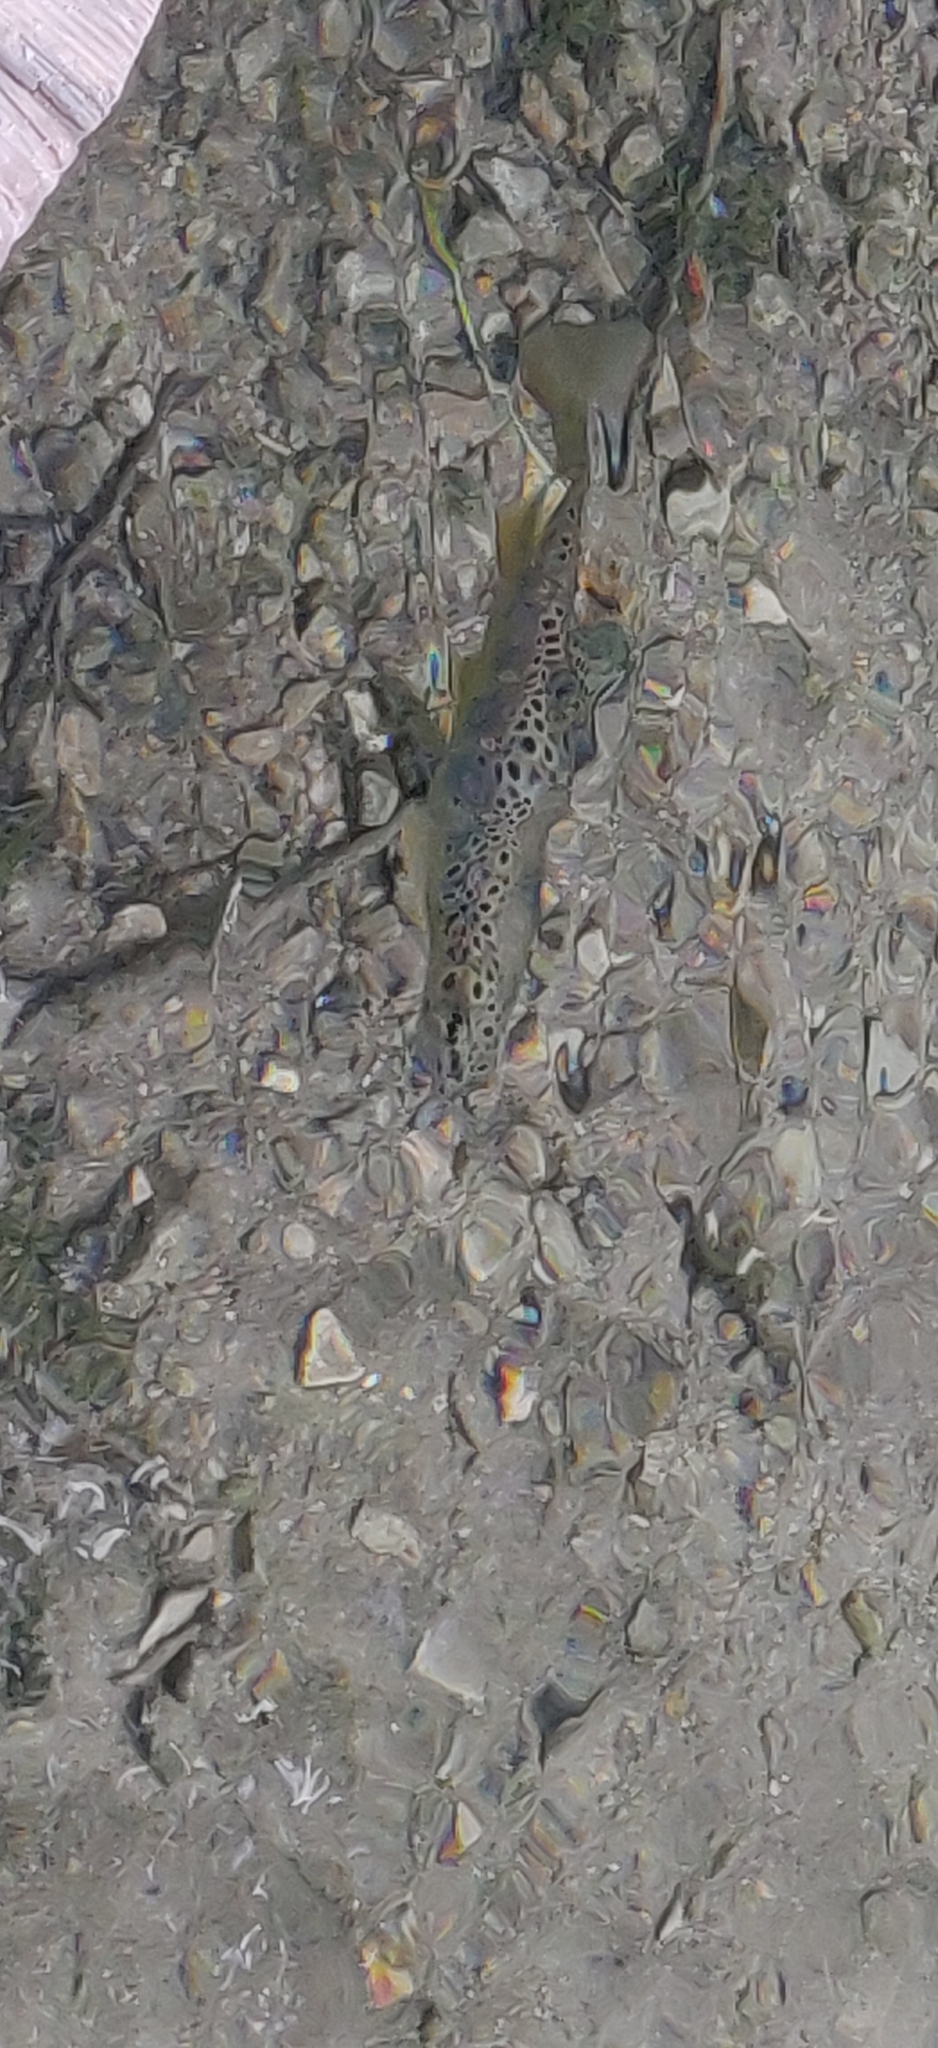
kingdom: Animalia
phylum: Chordata
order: Salmoniformes
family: Salmonidae
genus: Salmo
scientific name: Salmo trutta
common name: Brown trout
